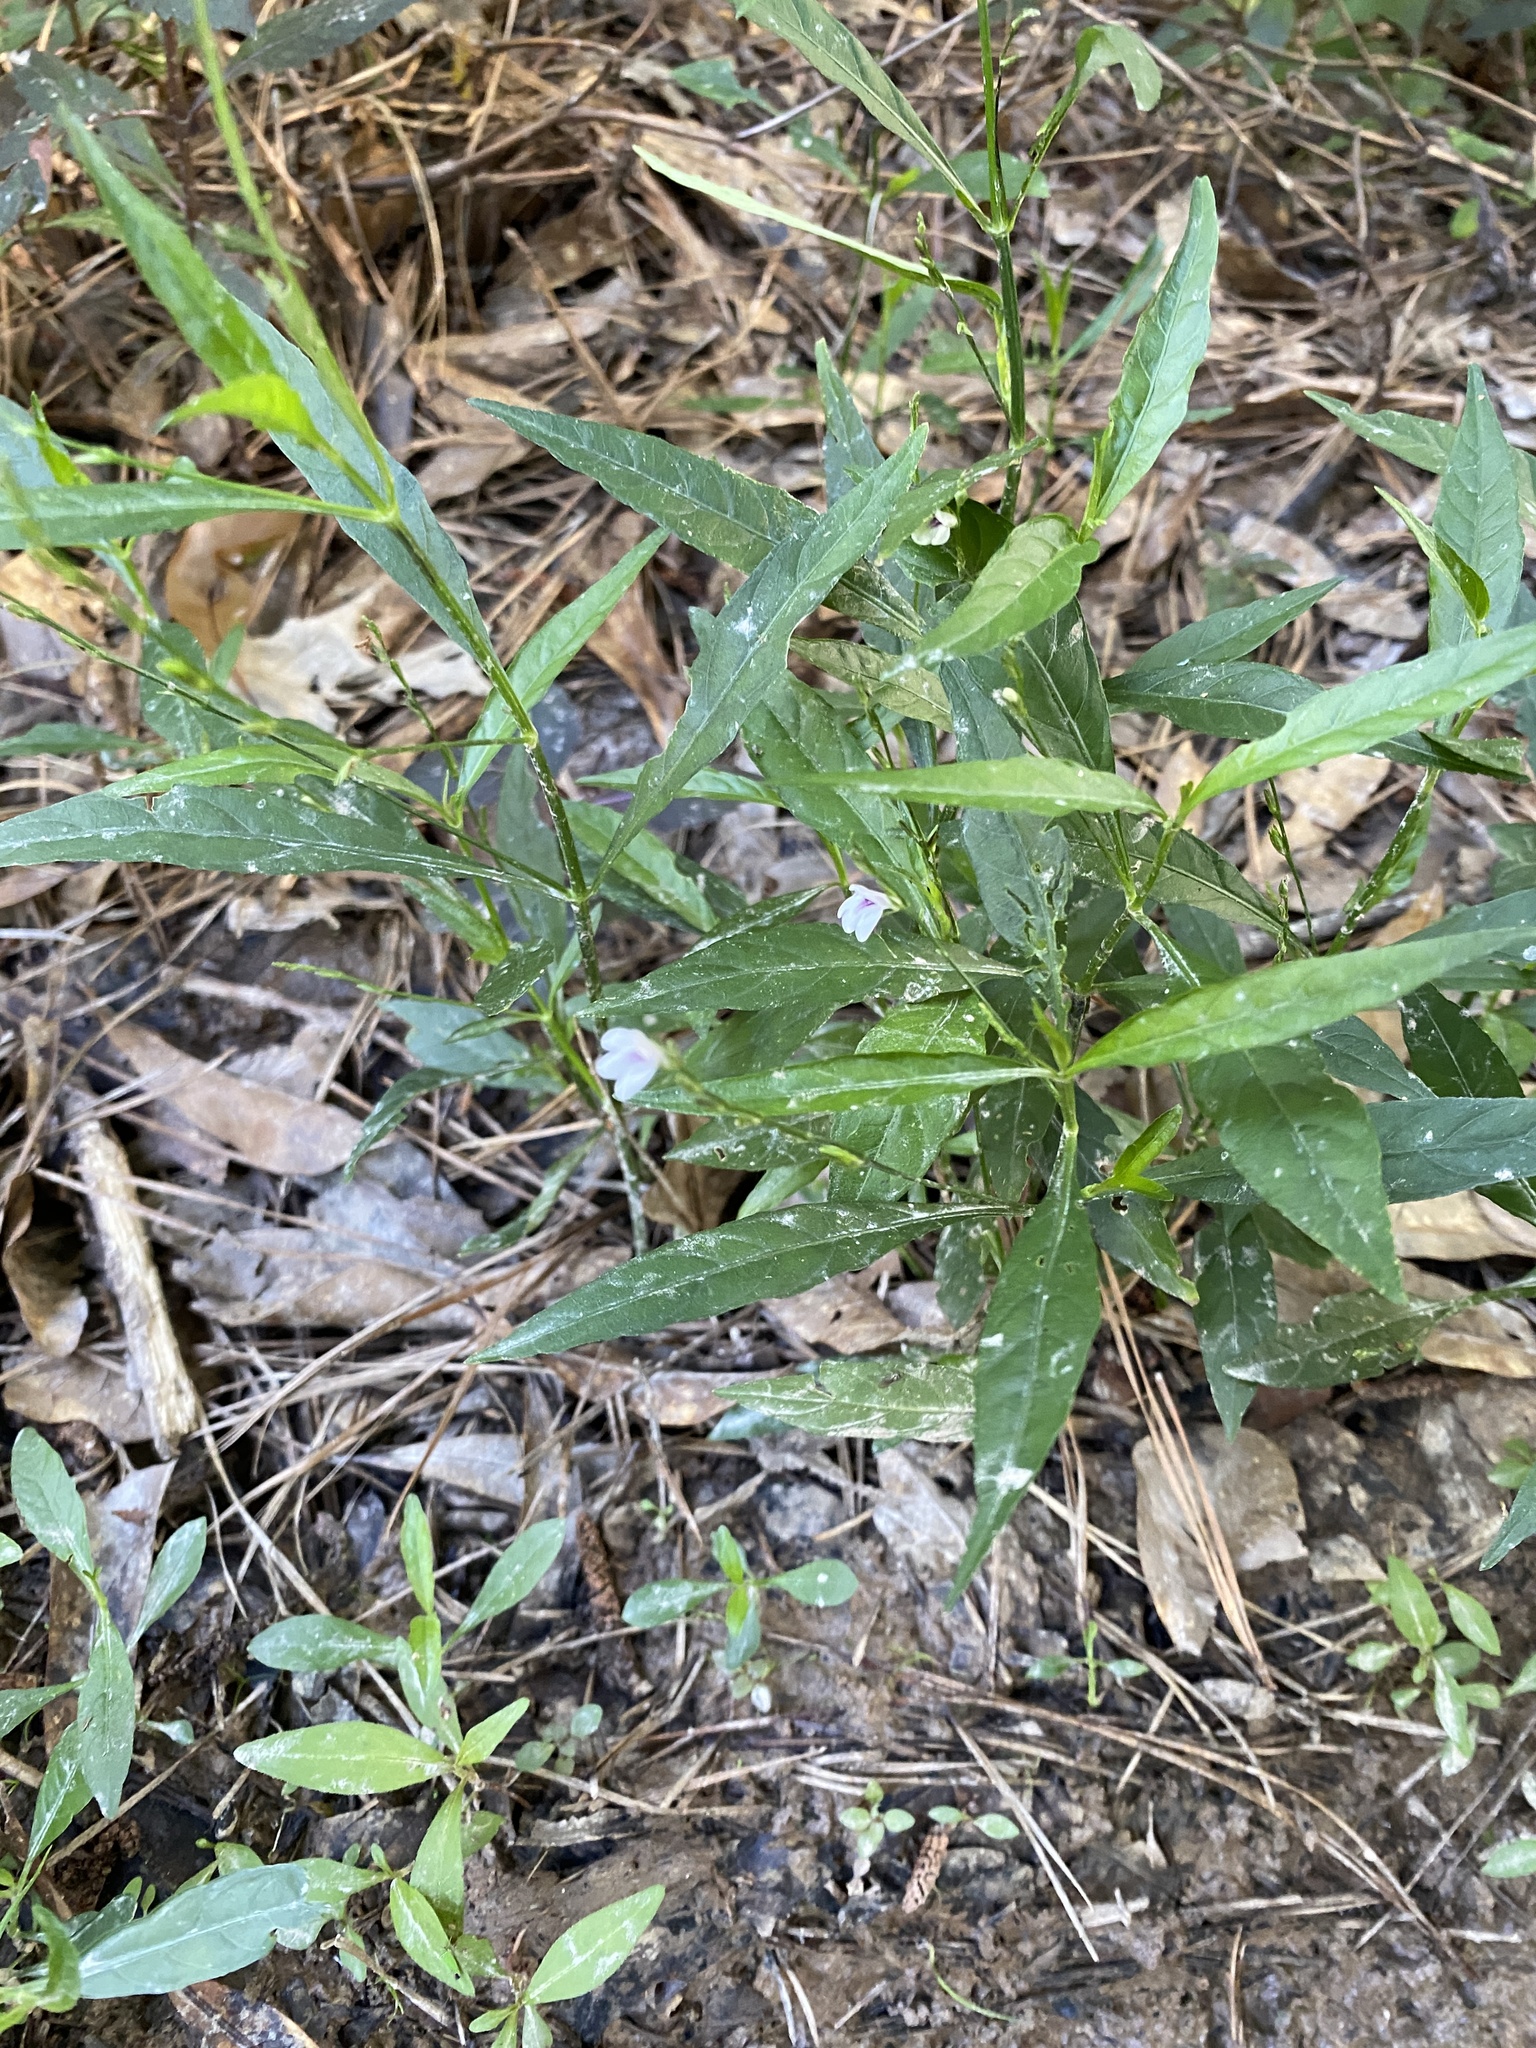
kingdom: Plantae
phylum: Tracheophyta
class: Magnoliopsida
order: Lamiales
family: Acanthaceae
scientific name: Acanthaceae
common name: Acanthaceae
